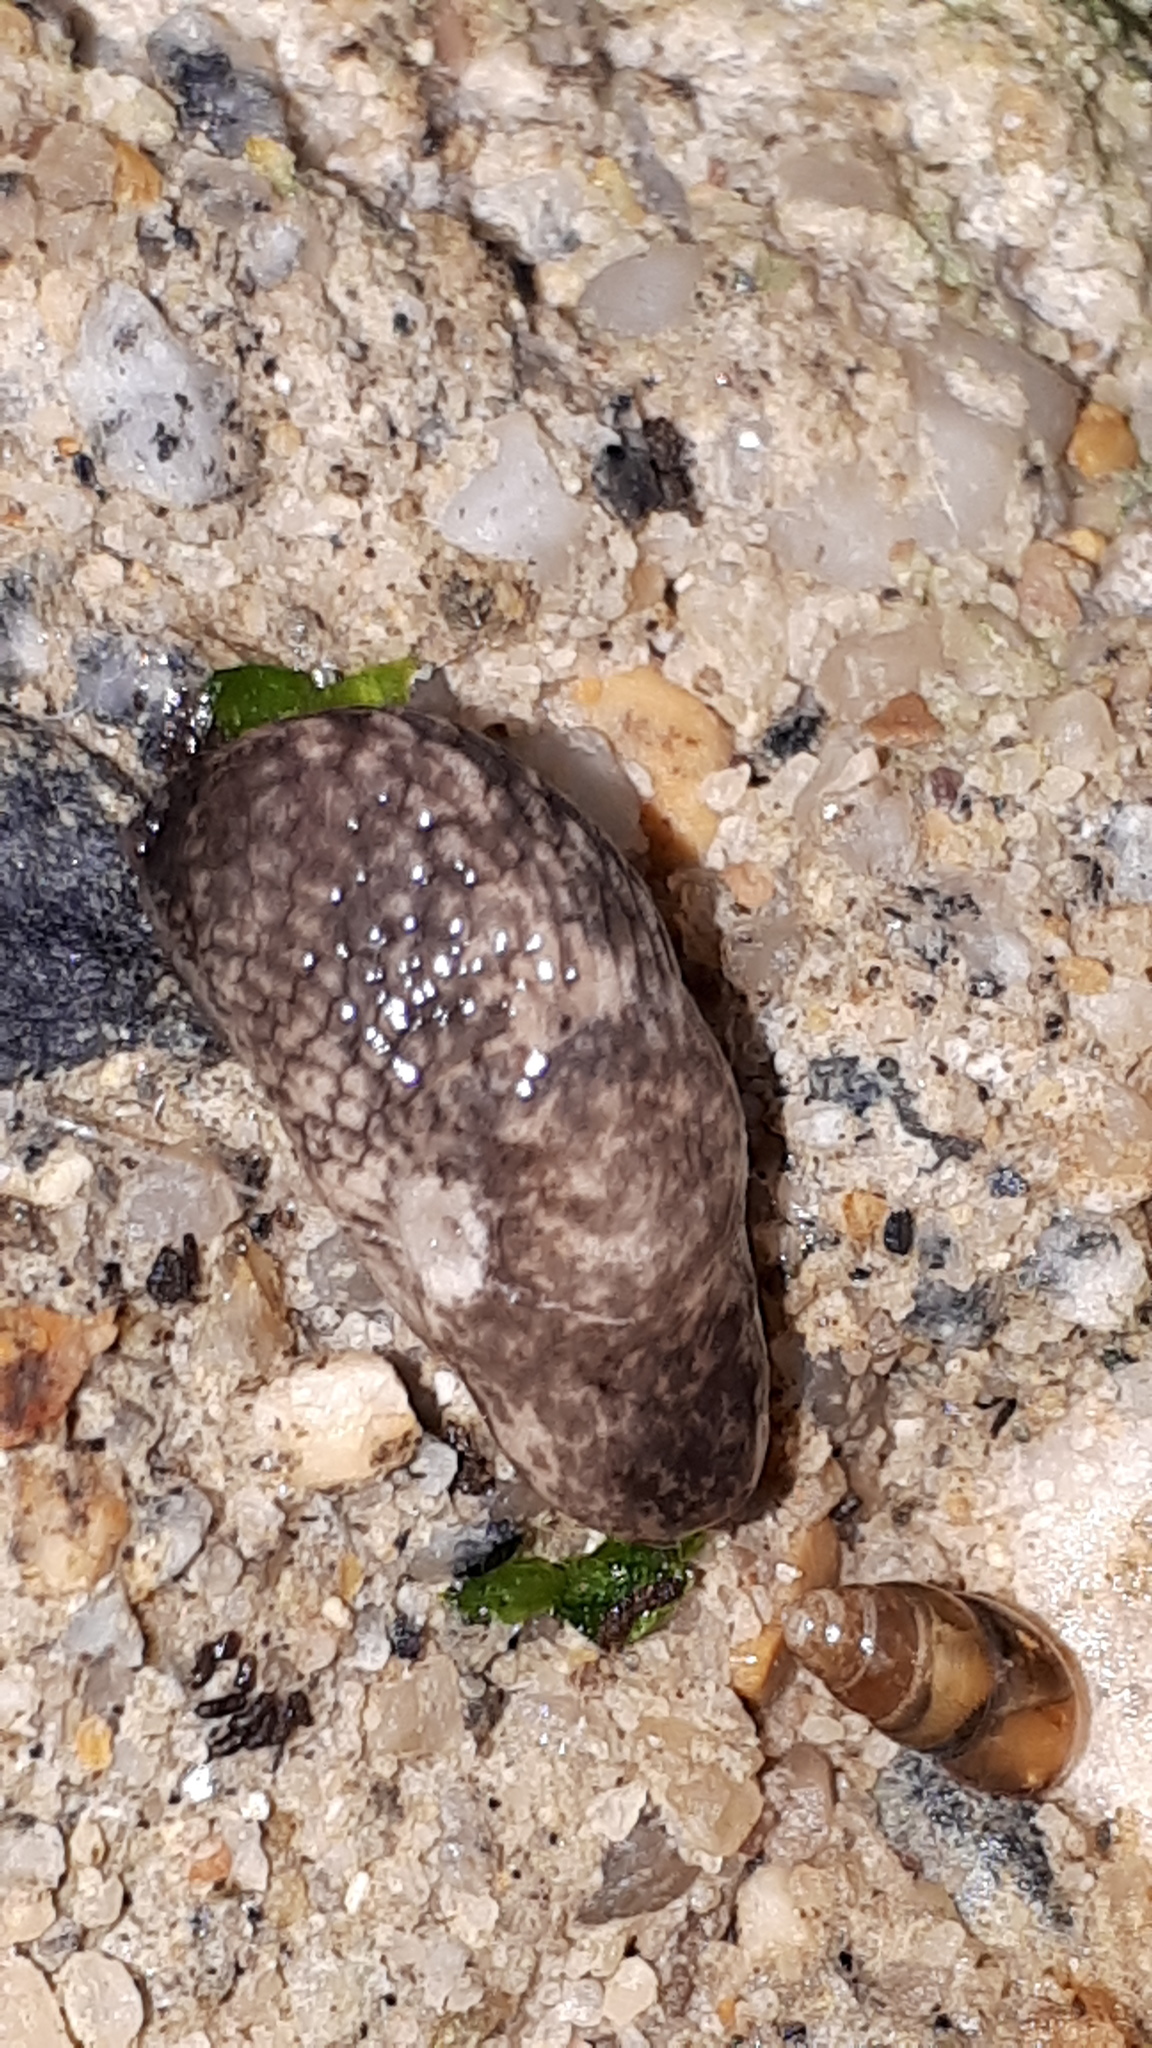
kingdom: Animalia
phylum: Mollusca
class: Gastropoda
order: Stylommatophora
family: Agriolimacidae
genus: Deroceras
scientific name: Deroceras reticulatum
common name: Gray field slug
